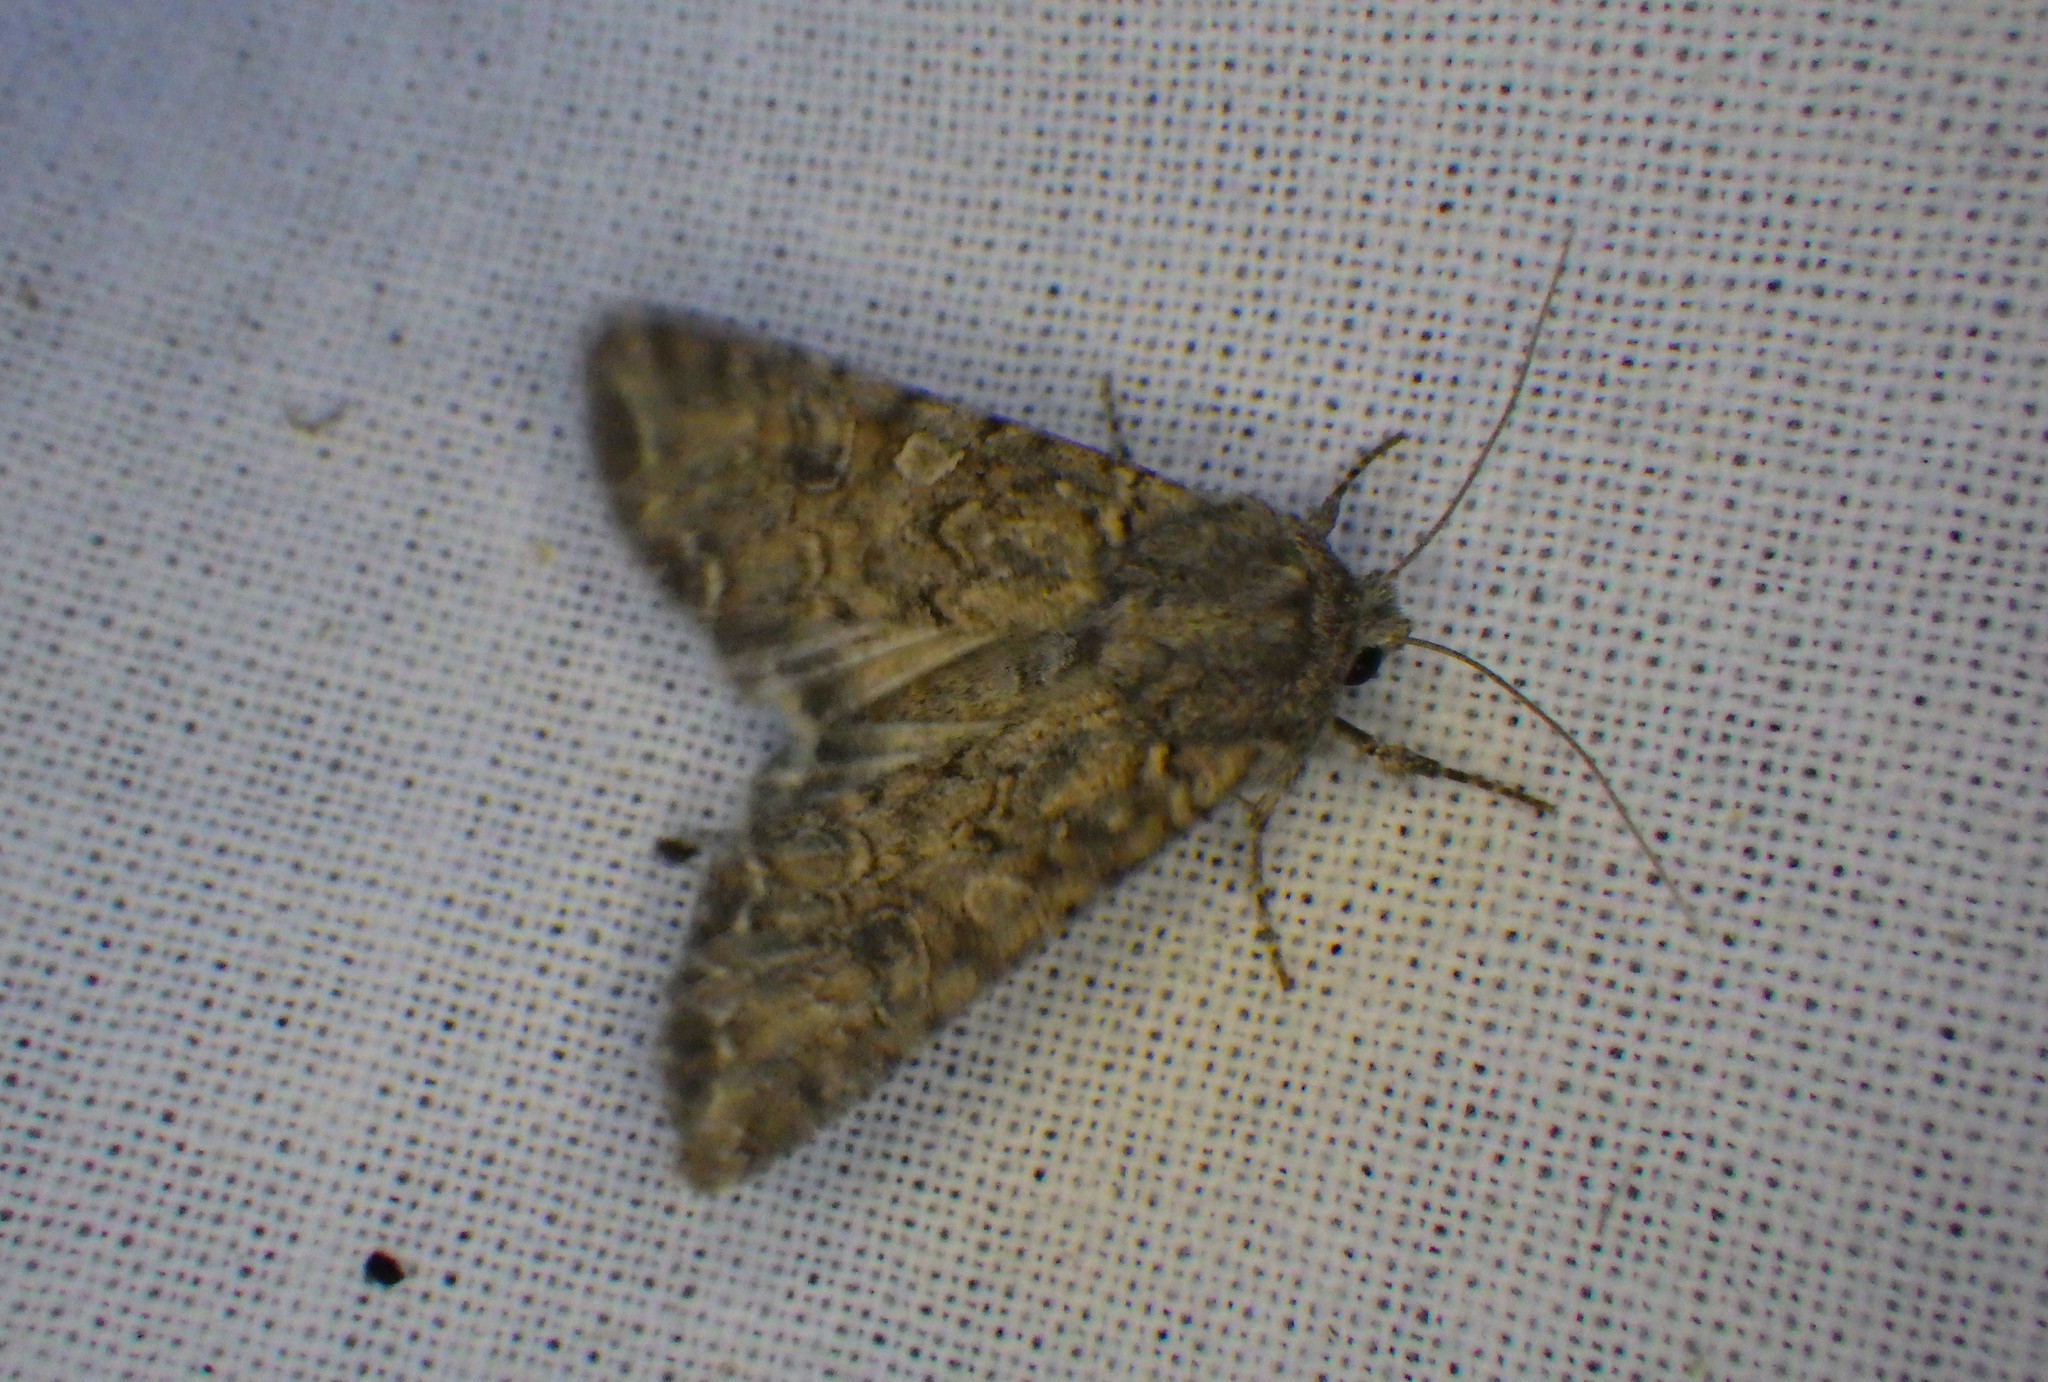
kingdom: Animalia
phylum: Arthropoda
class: Insecta
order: Lepidoptera
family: Noctuidae
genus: Anarta
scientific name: Anarta trifolii
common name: Clover cutworm moth
